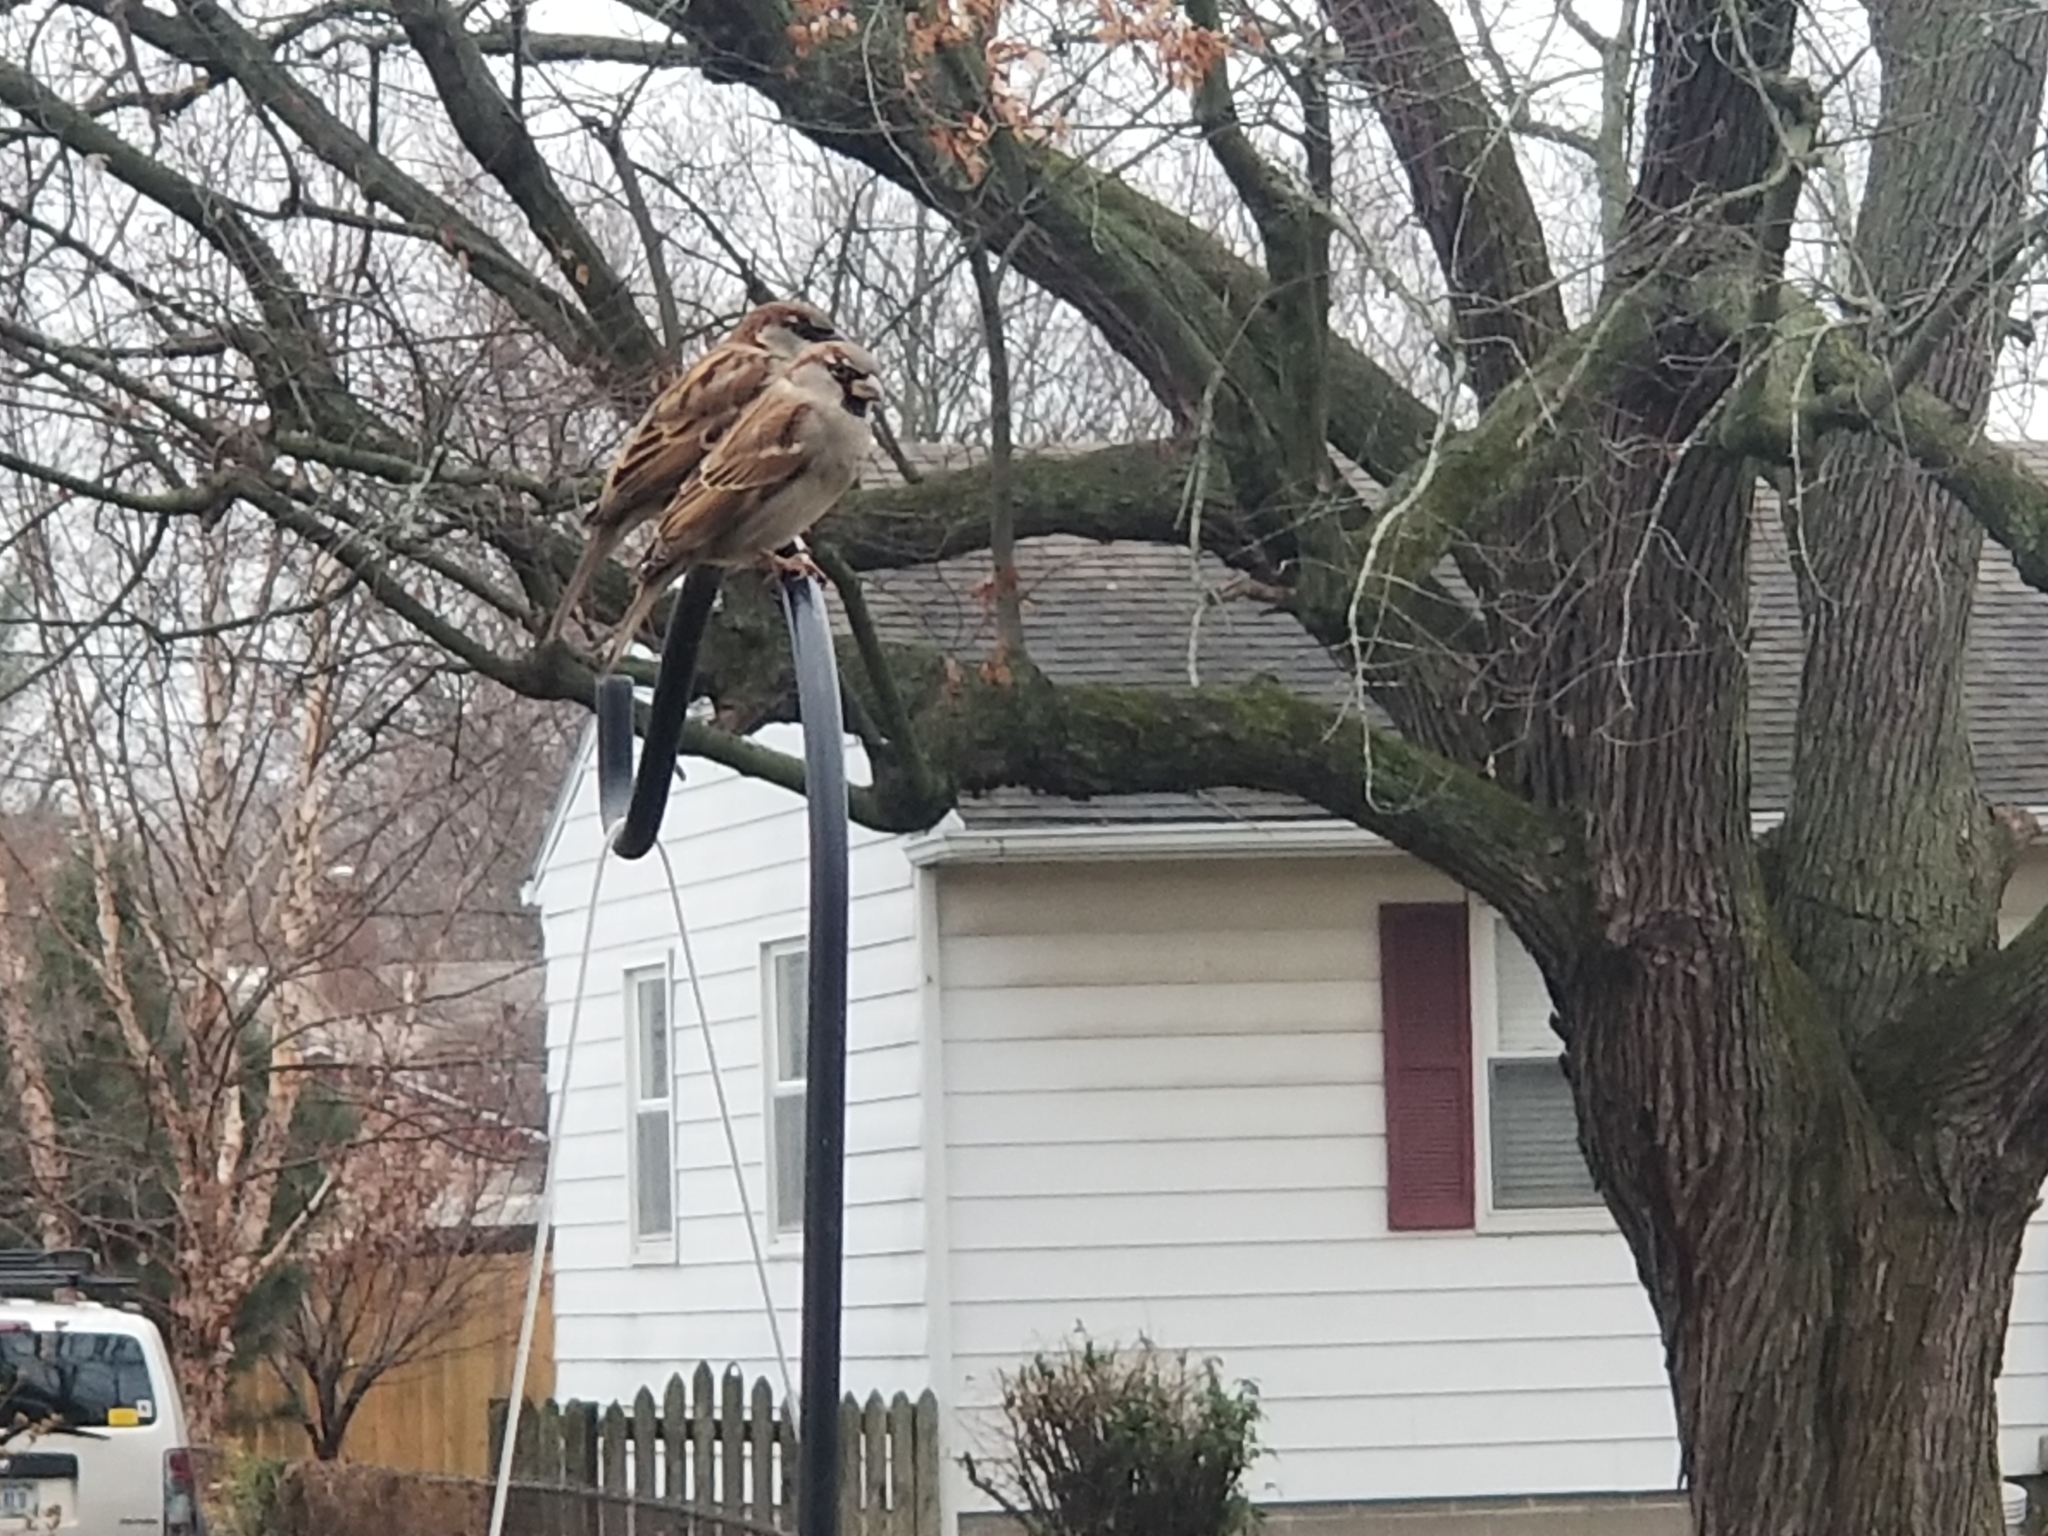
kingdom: Animalia
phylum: Chordata
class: Aves
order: Passeriformes
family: Passeridae
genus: Passer
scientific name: Passer domesticus
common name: House sparrow
